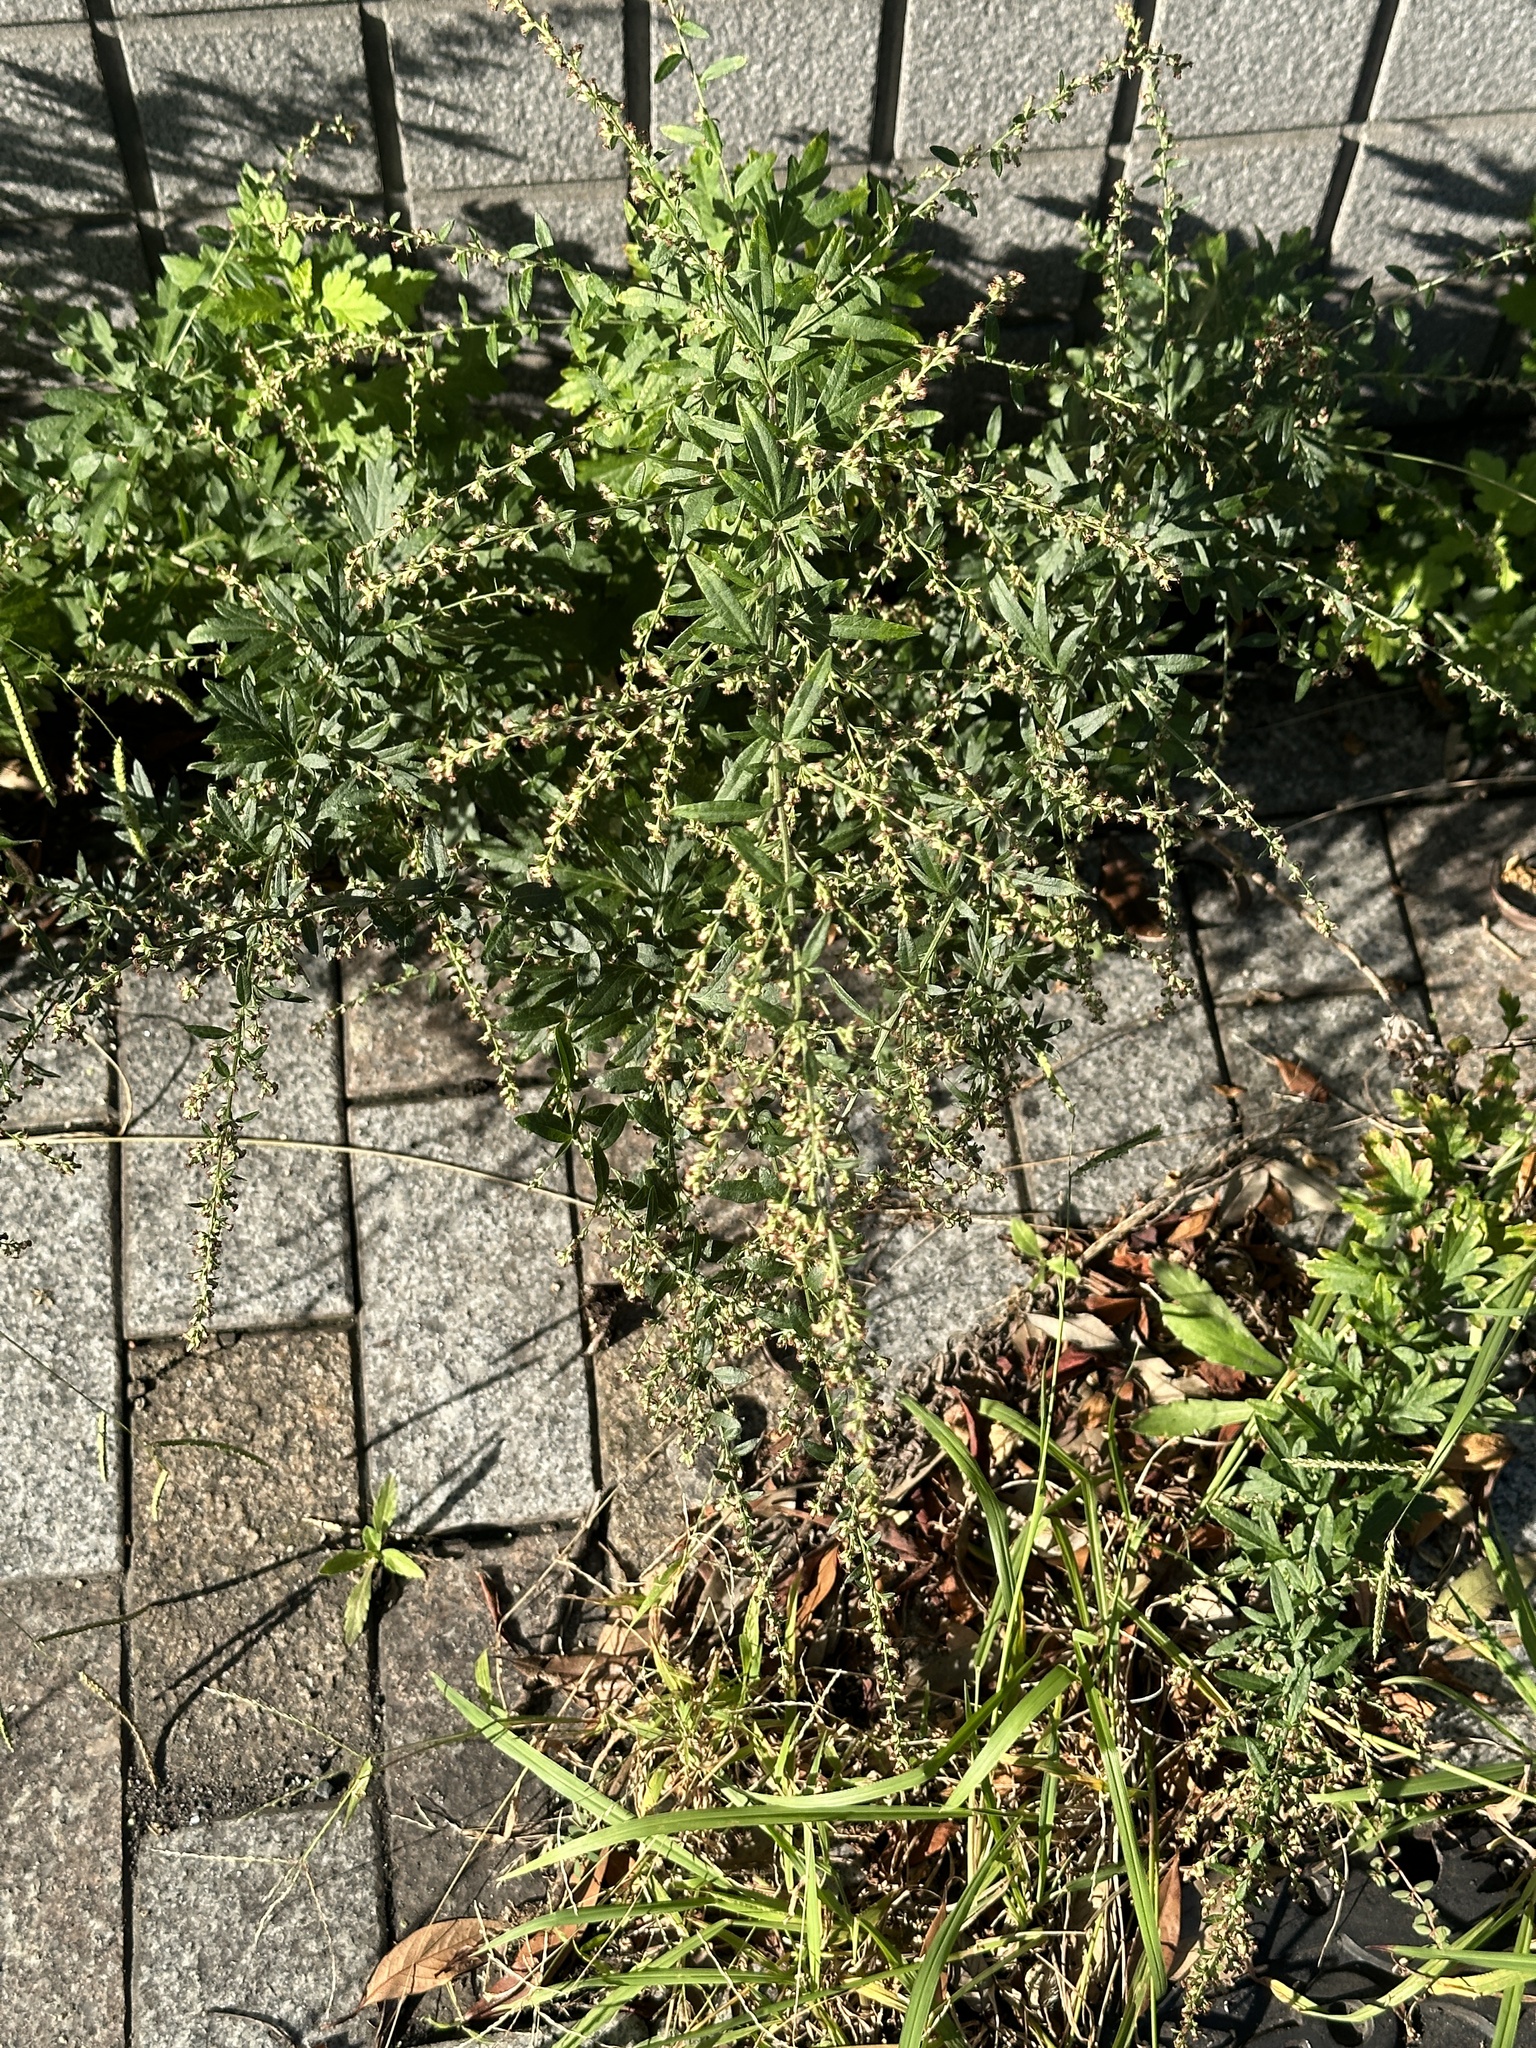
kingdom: Plantae
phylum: Tracheophyta
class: Magnoliopsida
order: Asterales
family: Asteraceae
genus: Artemisia
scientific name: Artemisia princeps
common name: Japanese mugwort
